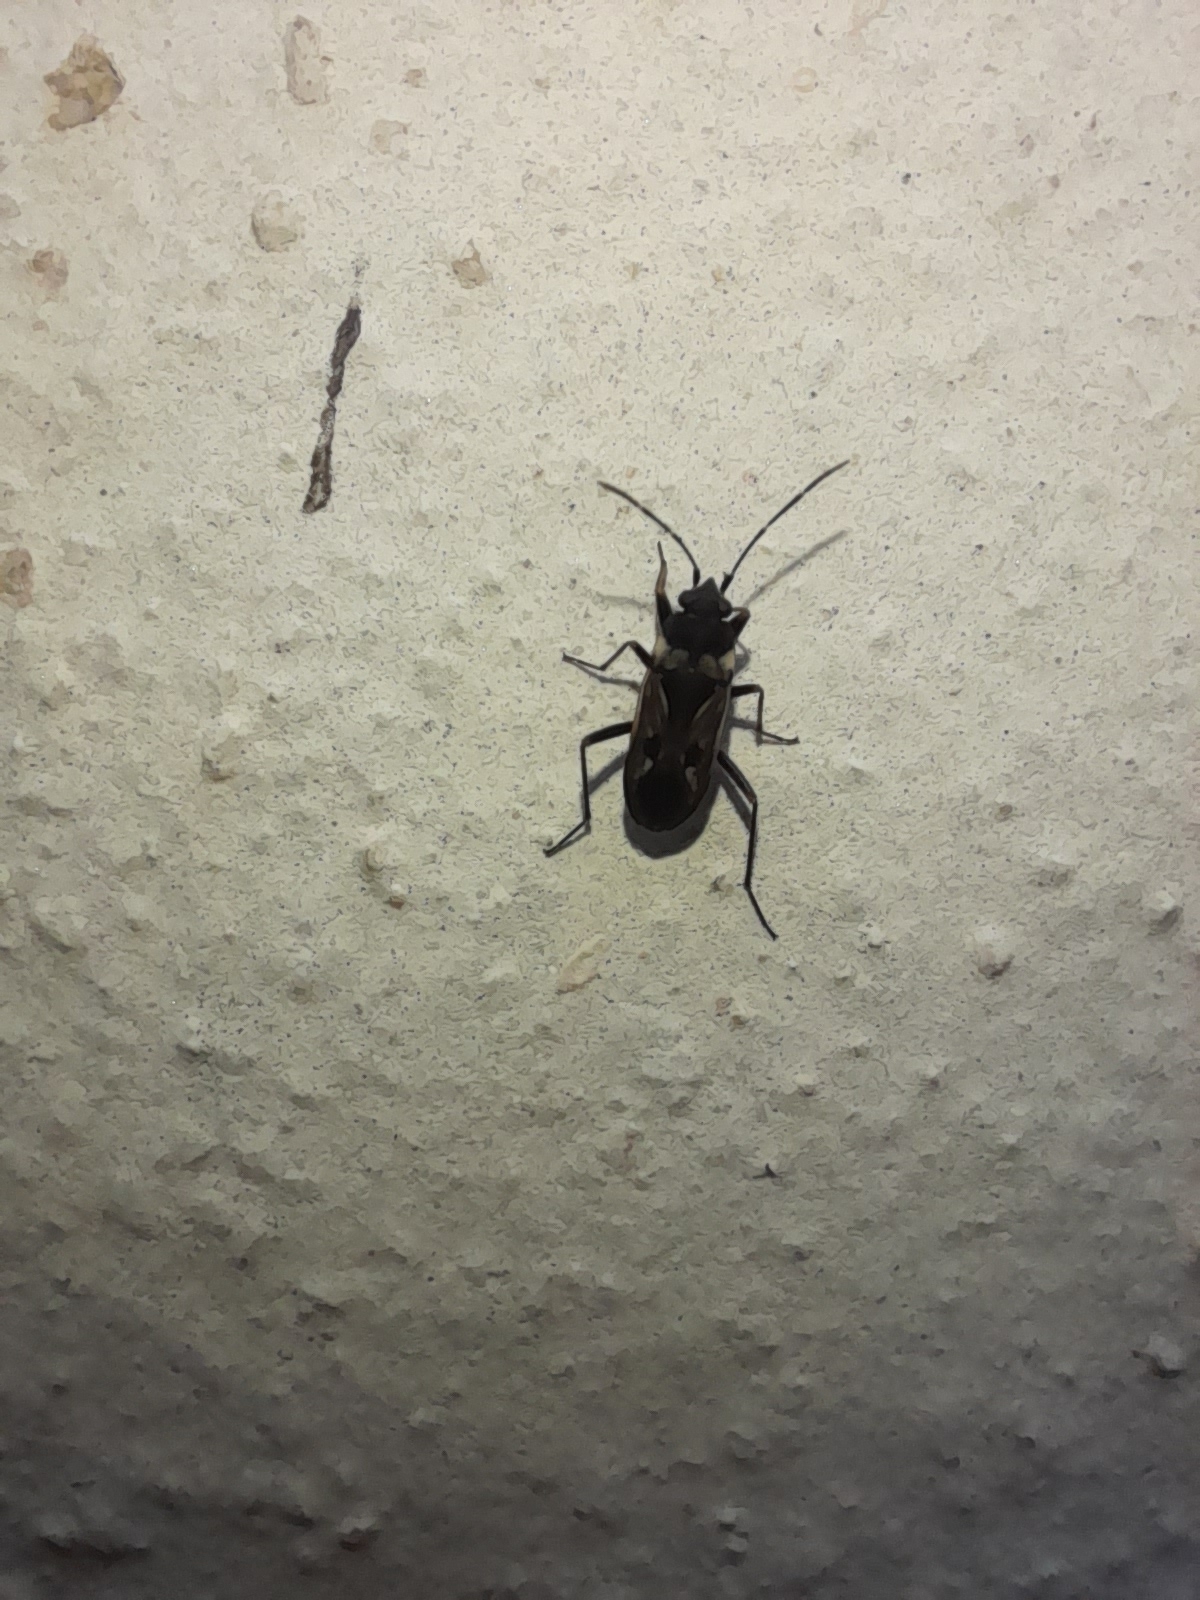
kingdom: Animalia
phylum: Arthropoda
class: Insecta
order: Hemiptera
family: Rhyparochromidae
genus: Rhyparochromus
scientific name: Rhyparochromus vulgaris
